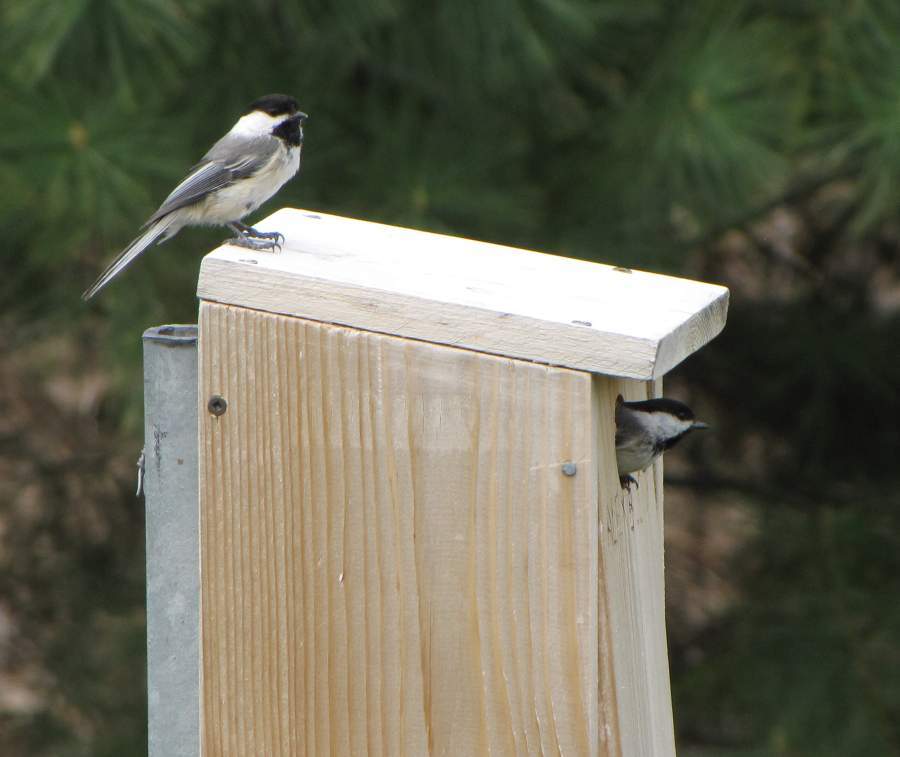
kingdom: Animalia
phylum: Chordata
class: Aves
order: Passeriformes
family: Paridae
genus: Poecile
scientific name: Poecile atricapillus
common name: Black-capped chickadee
